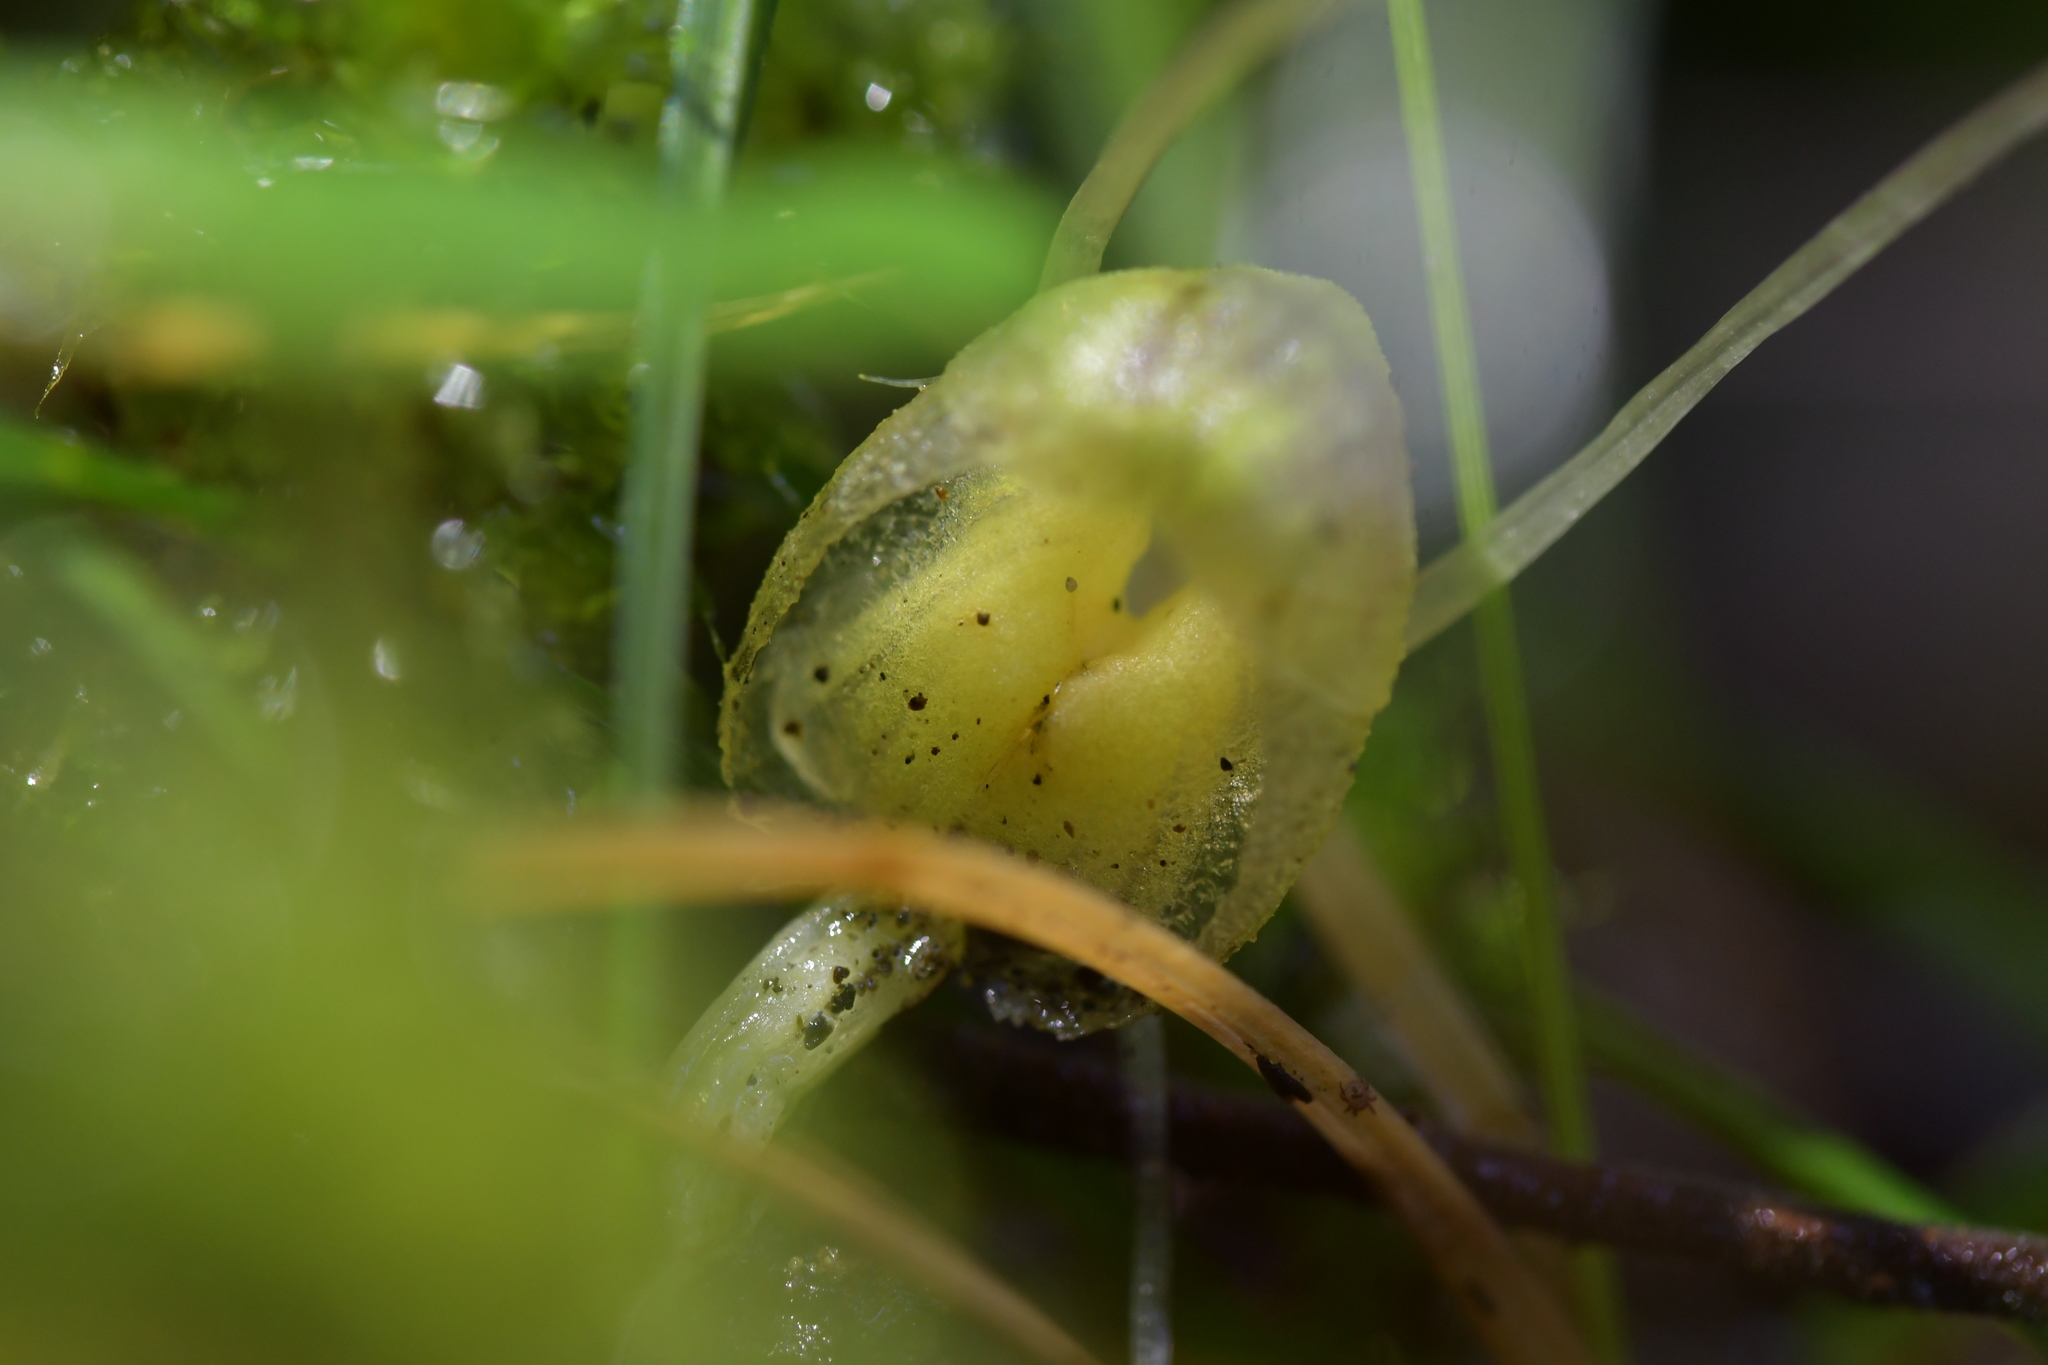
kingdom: Plantae
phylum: Tracheophyta
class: Liliopsida
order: Asparagales
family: Orchidaceae
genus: Corybas
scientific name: Corybas walliae
